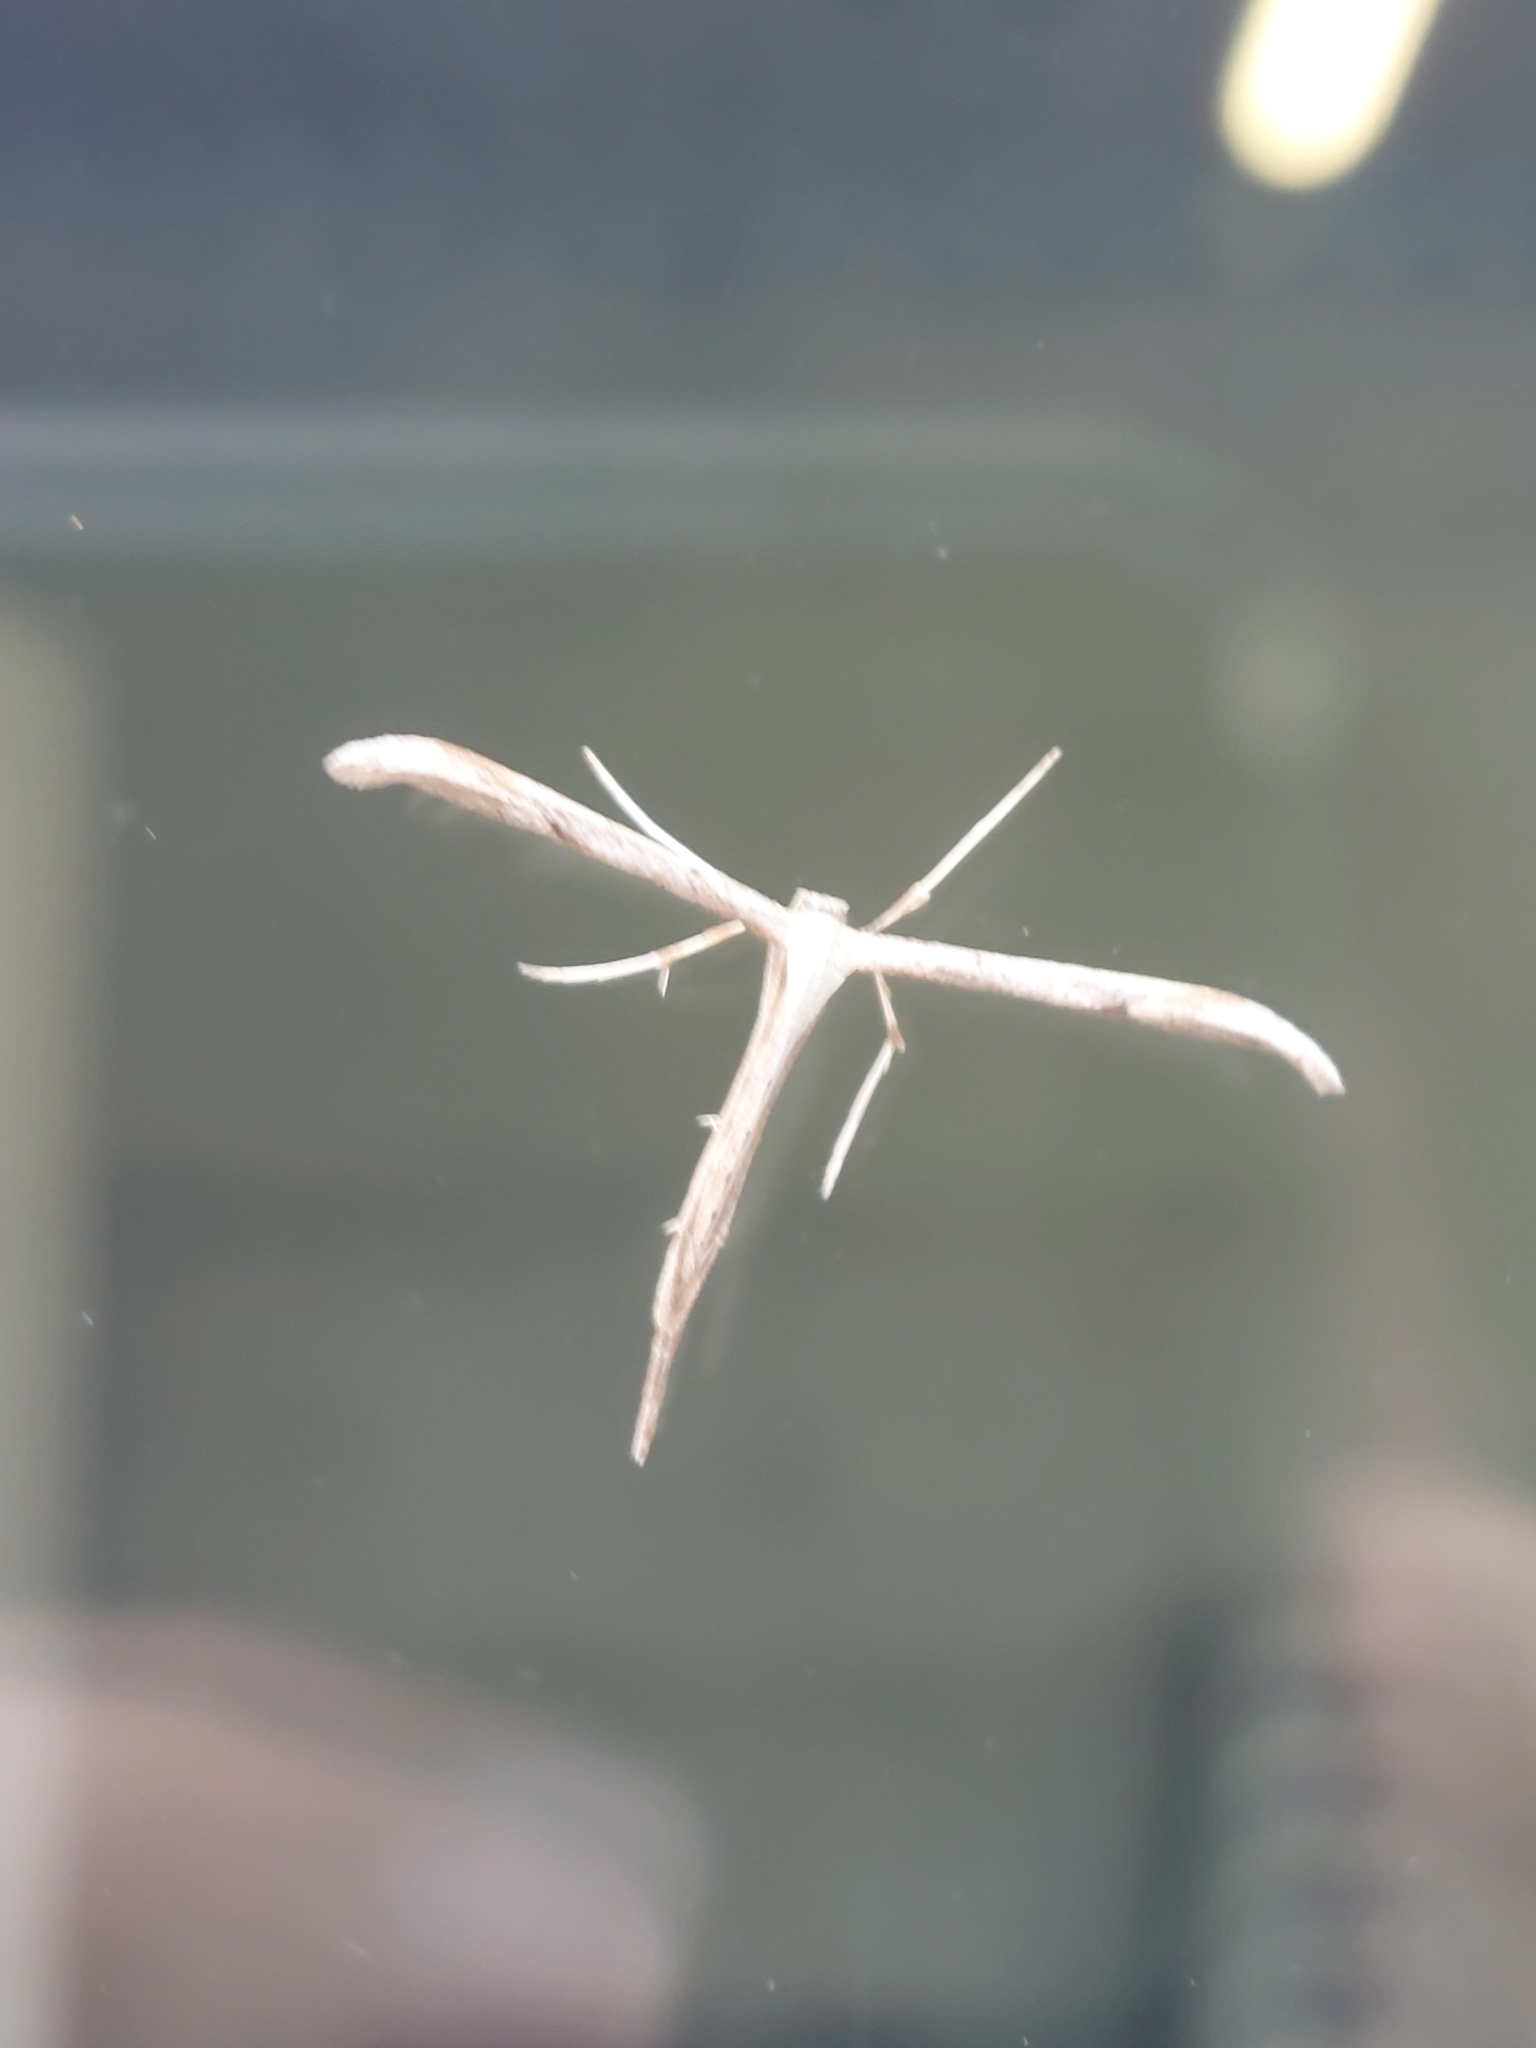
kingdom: Animalia
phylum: Arthropoda
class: Insecta
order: Lepidoptera
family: Pterophoridae
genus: Emmelina
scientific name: Emmelina monodactyla
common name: Common plume
